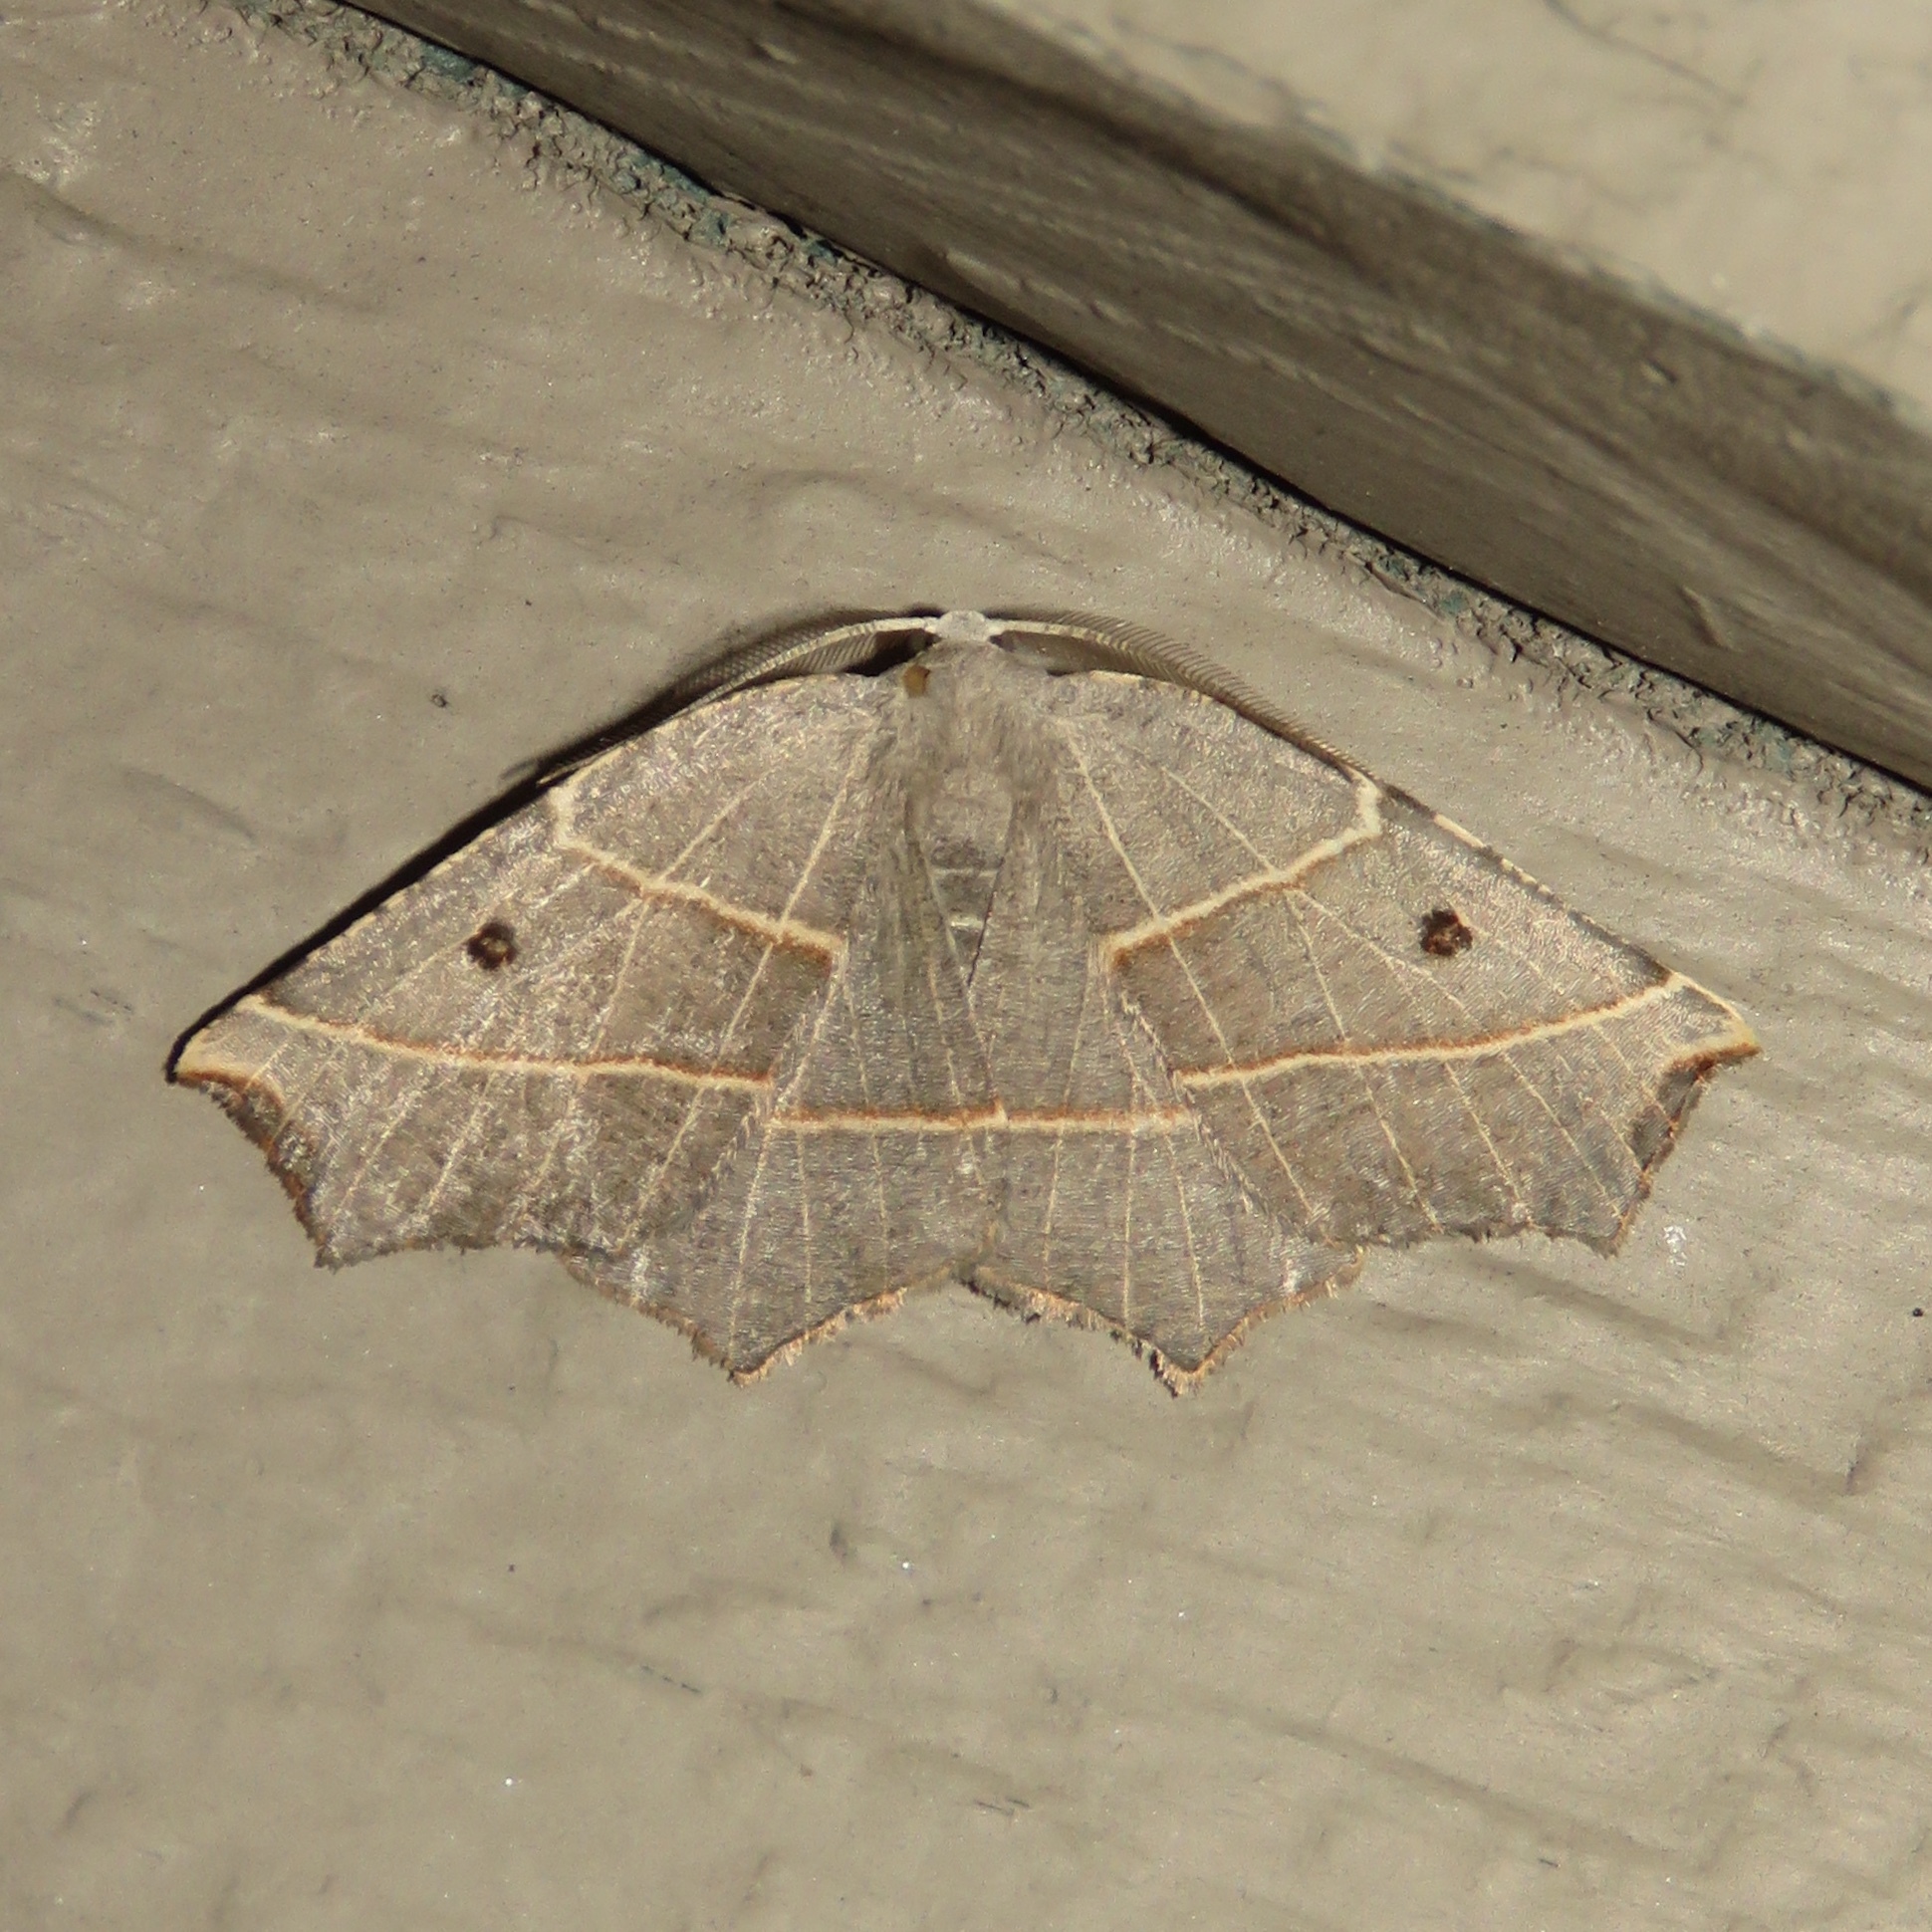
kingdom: Animalia
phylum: Arthropoda
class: Insecta
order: Lepidoptera
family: Geometridae
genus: Metanema
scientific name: Metanema inatomaria
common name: Pale metanema
